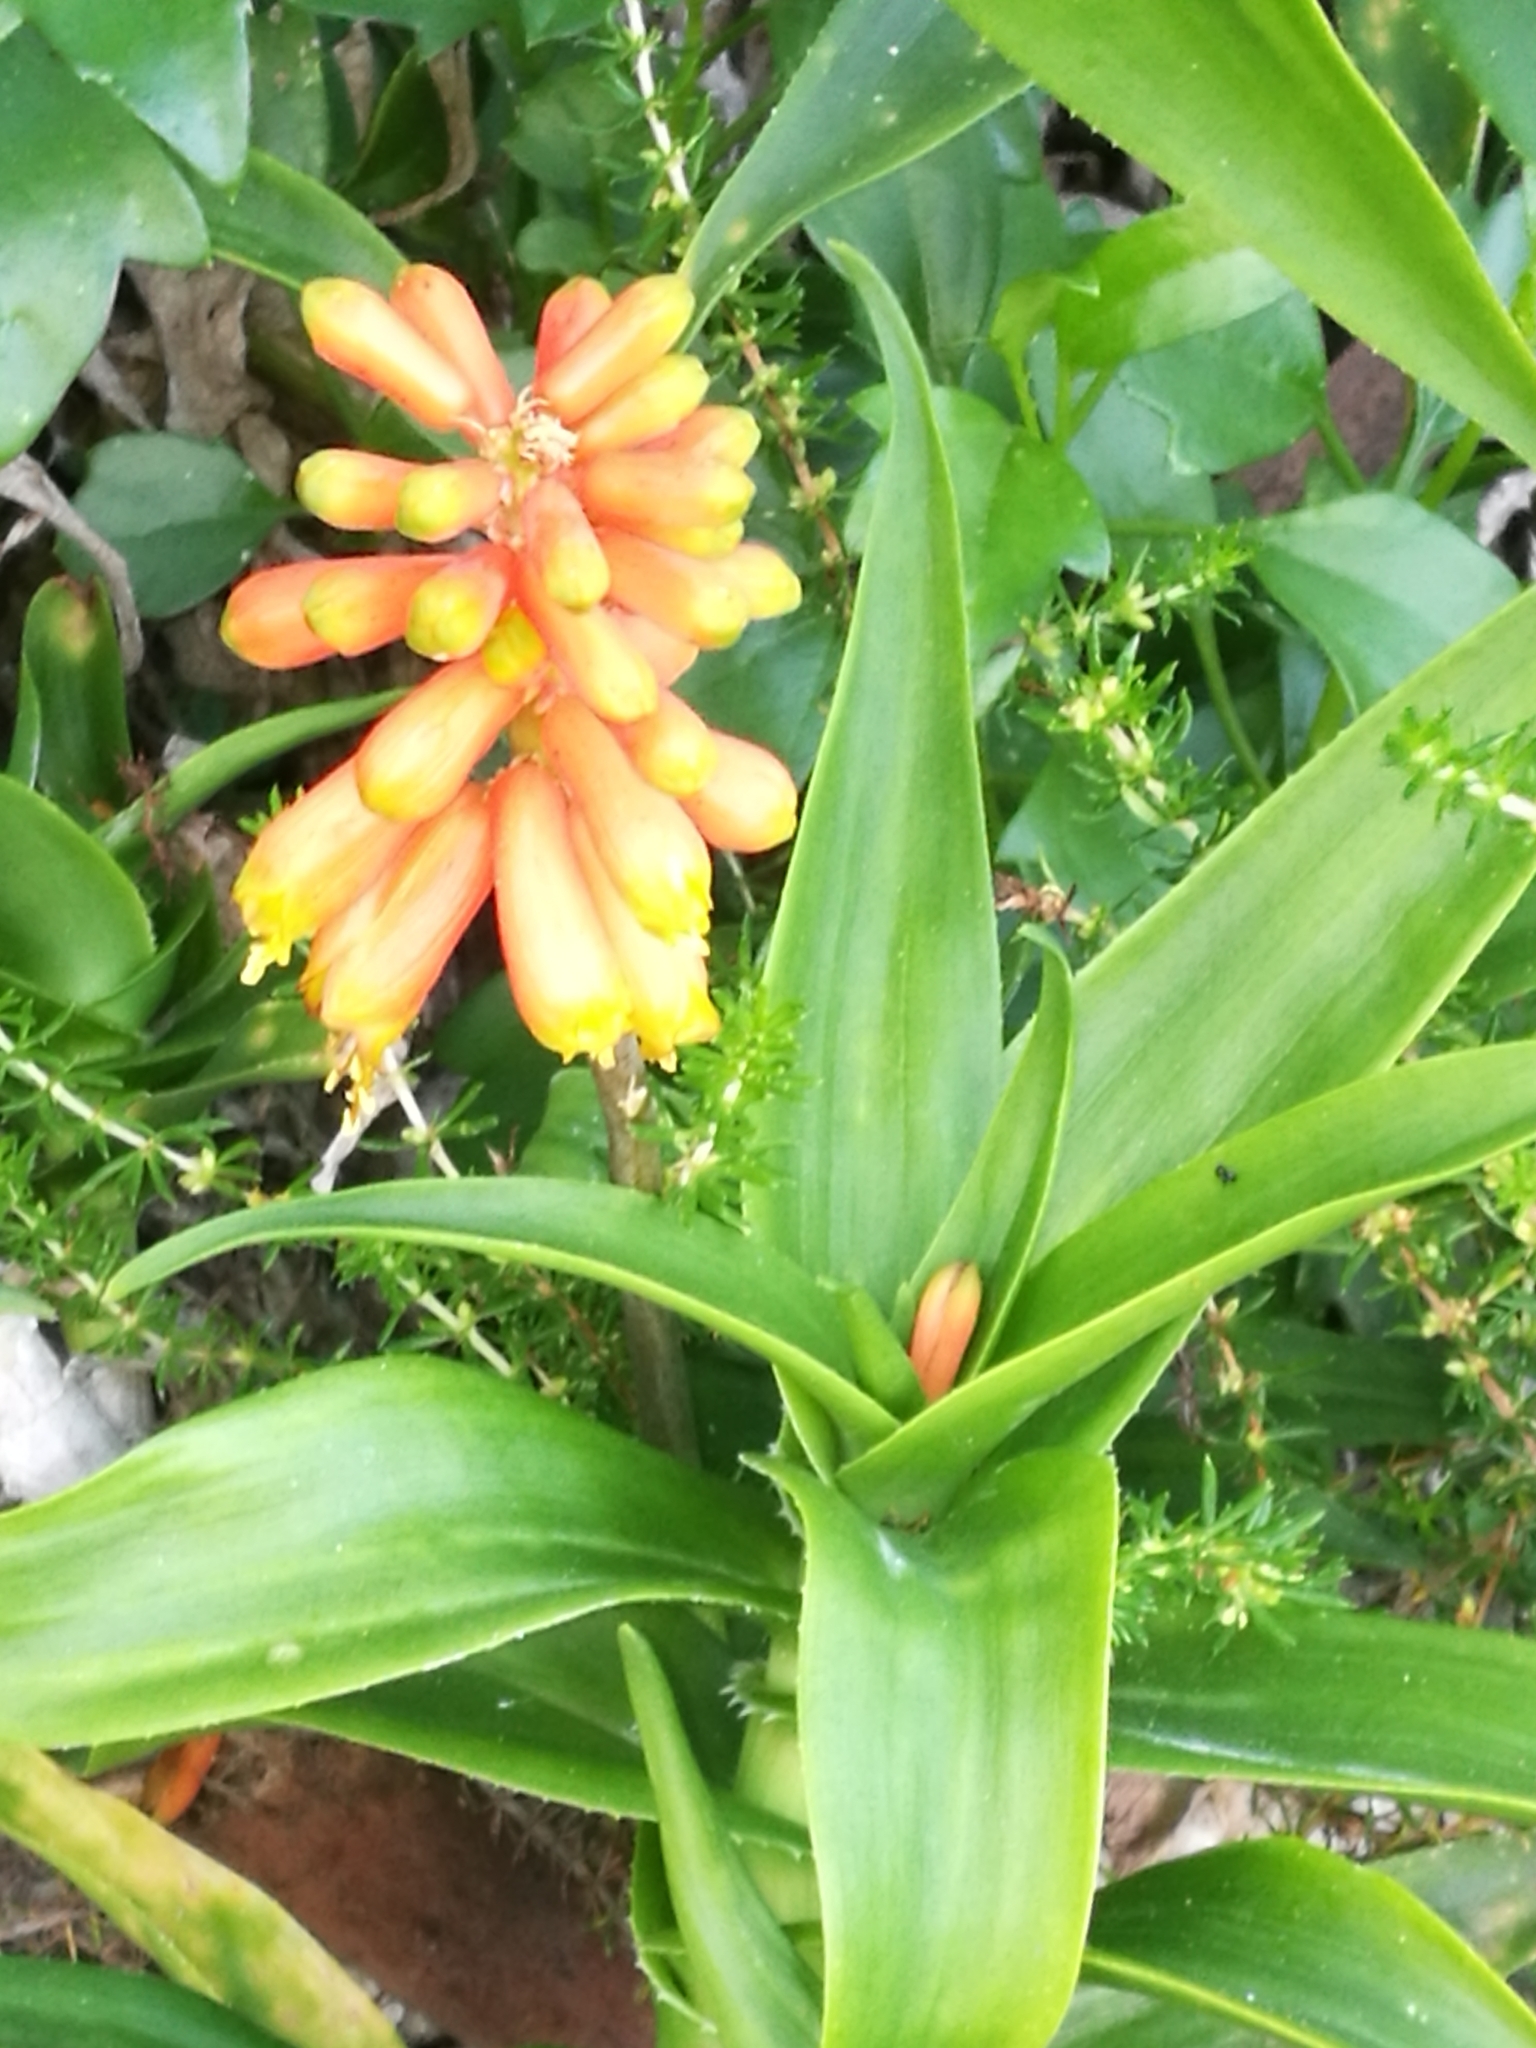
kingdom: Plantae
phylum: Tracheophyta
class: Liliopsida
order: Asparagales
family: Asphodelaceae
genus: Aloiampelos
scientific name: Aloiampelos ciliaris
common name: Climbing aloe
